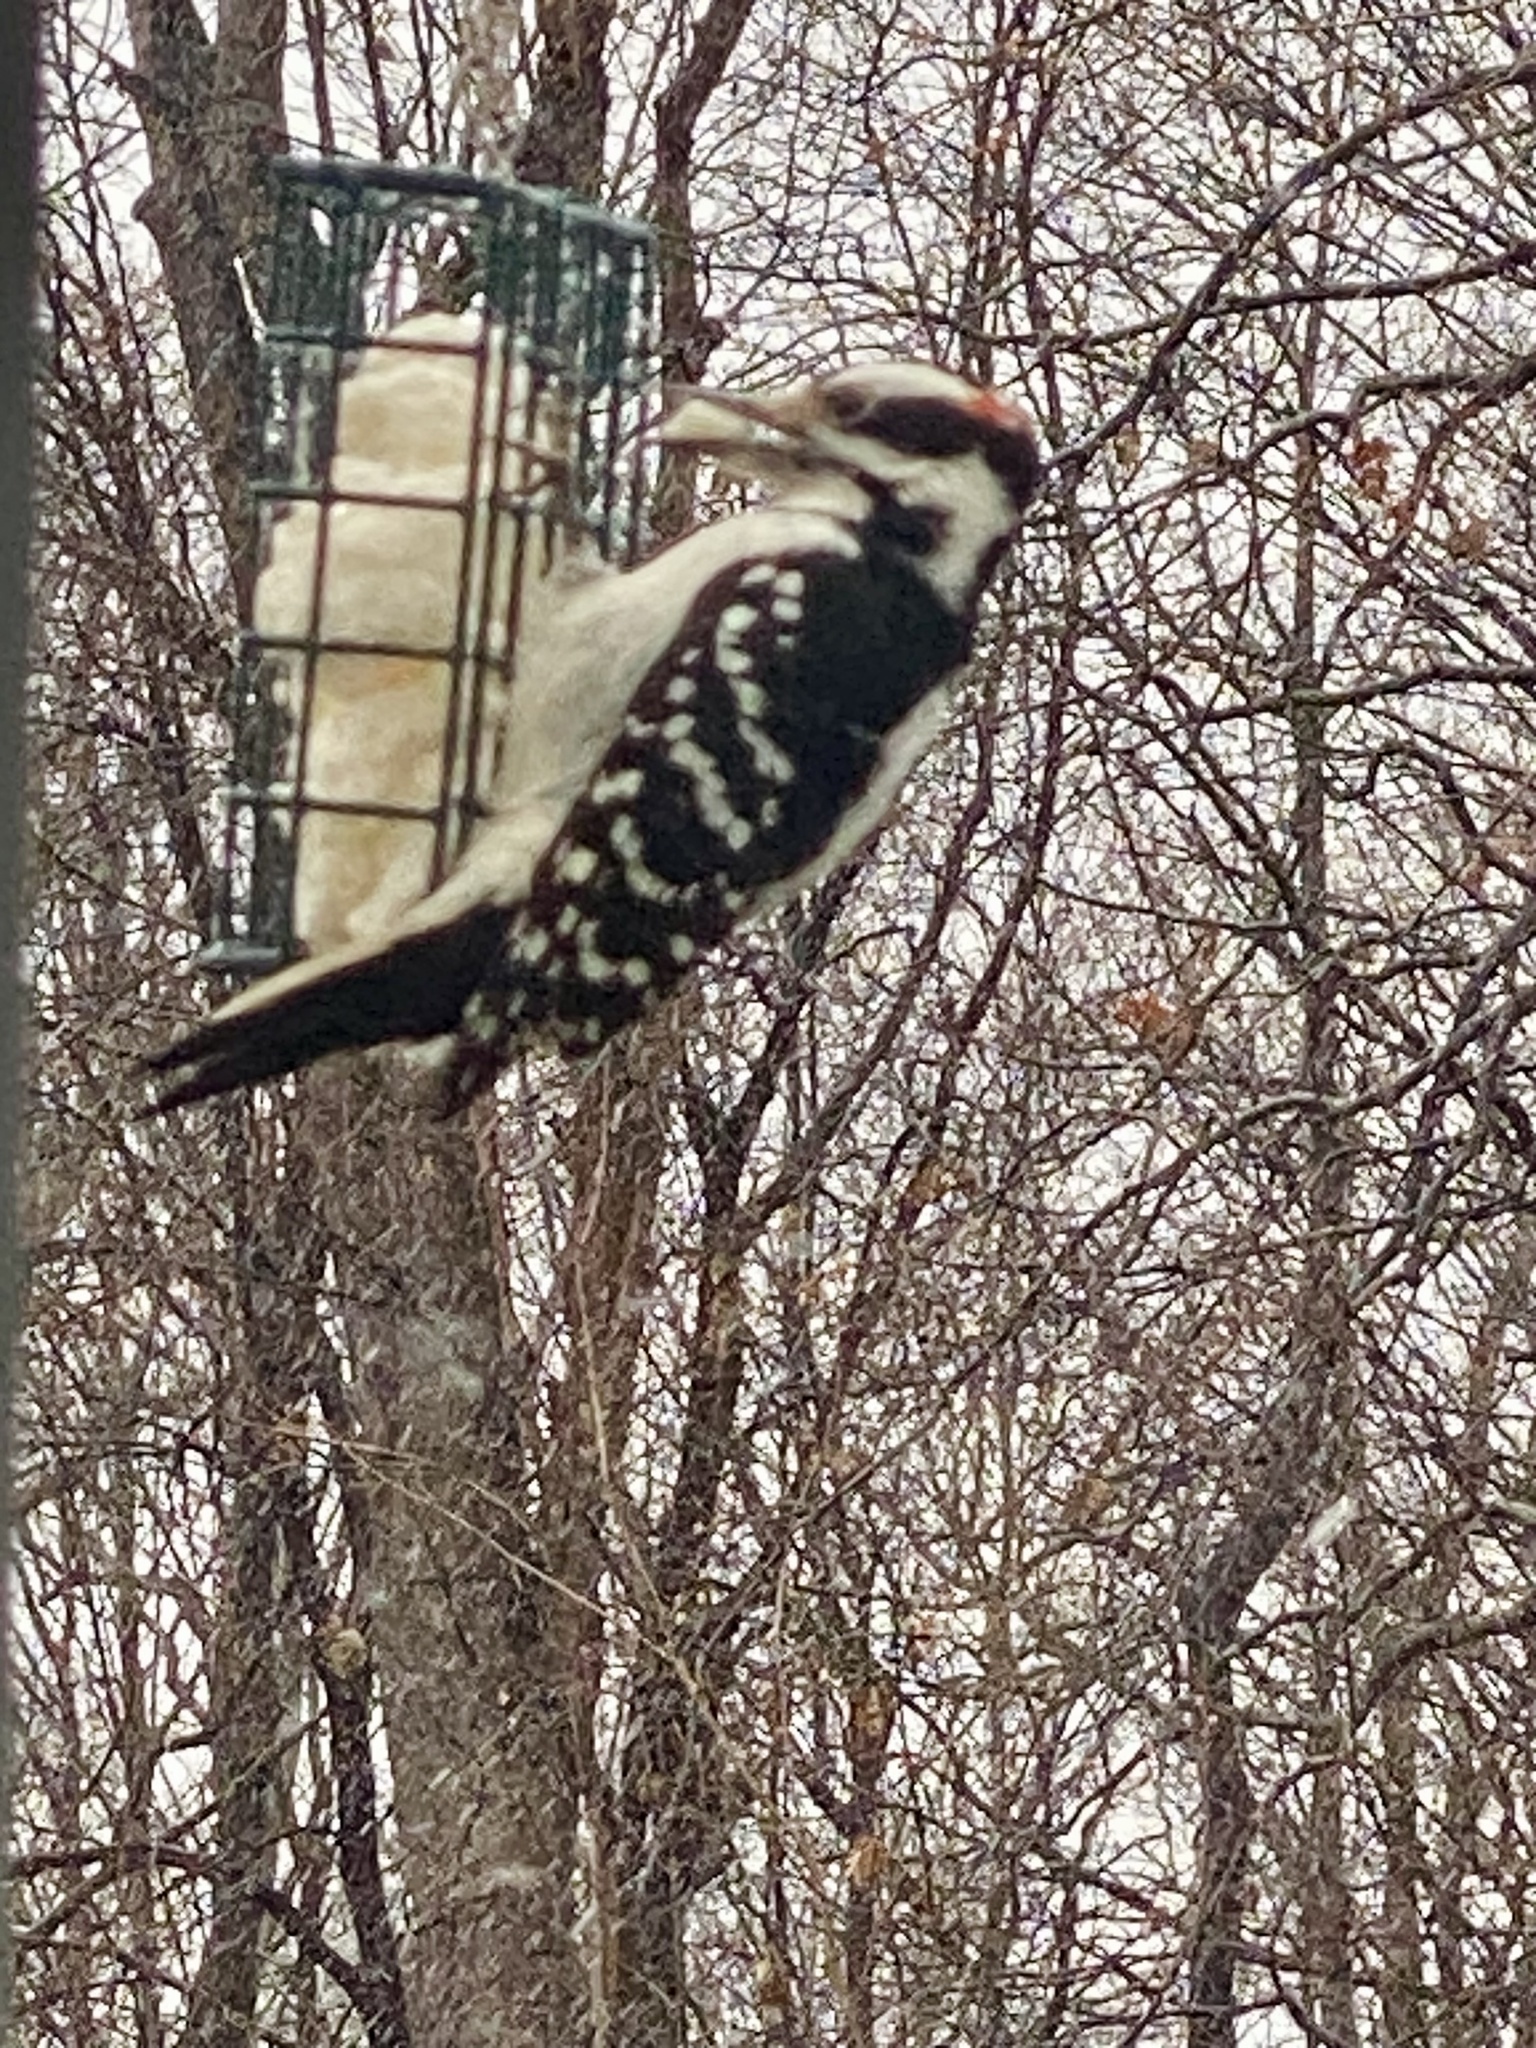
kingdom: Animalia
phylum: Chordata
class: Aves
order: Piciformes
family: Picidae
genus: Leuconotopicus
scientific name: Leuconotopicus villosus
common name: Hairy woodpecker
